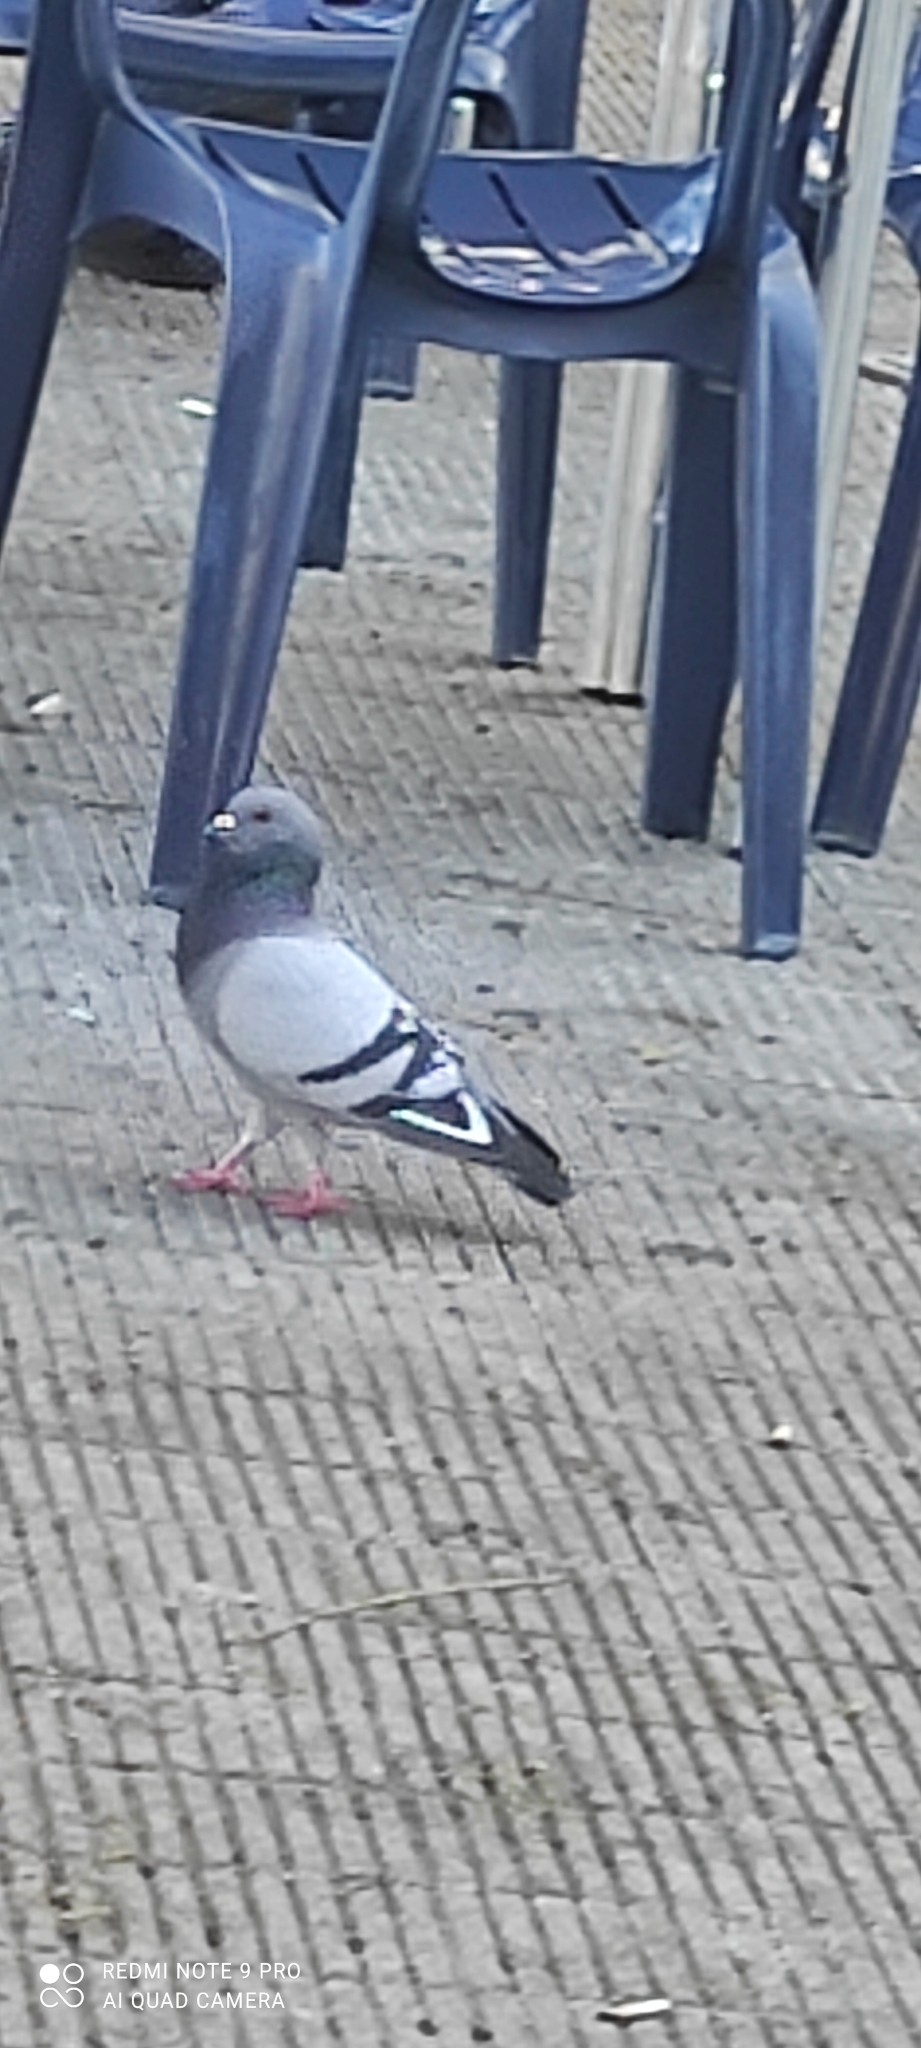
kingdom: Animalia
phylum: Chordata
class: Aves
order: Columbiformes
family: Columbidae
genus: Columba
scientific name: Columba livia
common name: Rock pigeon
